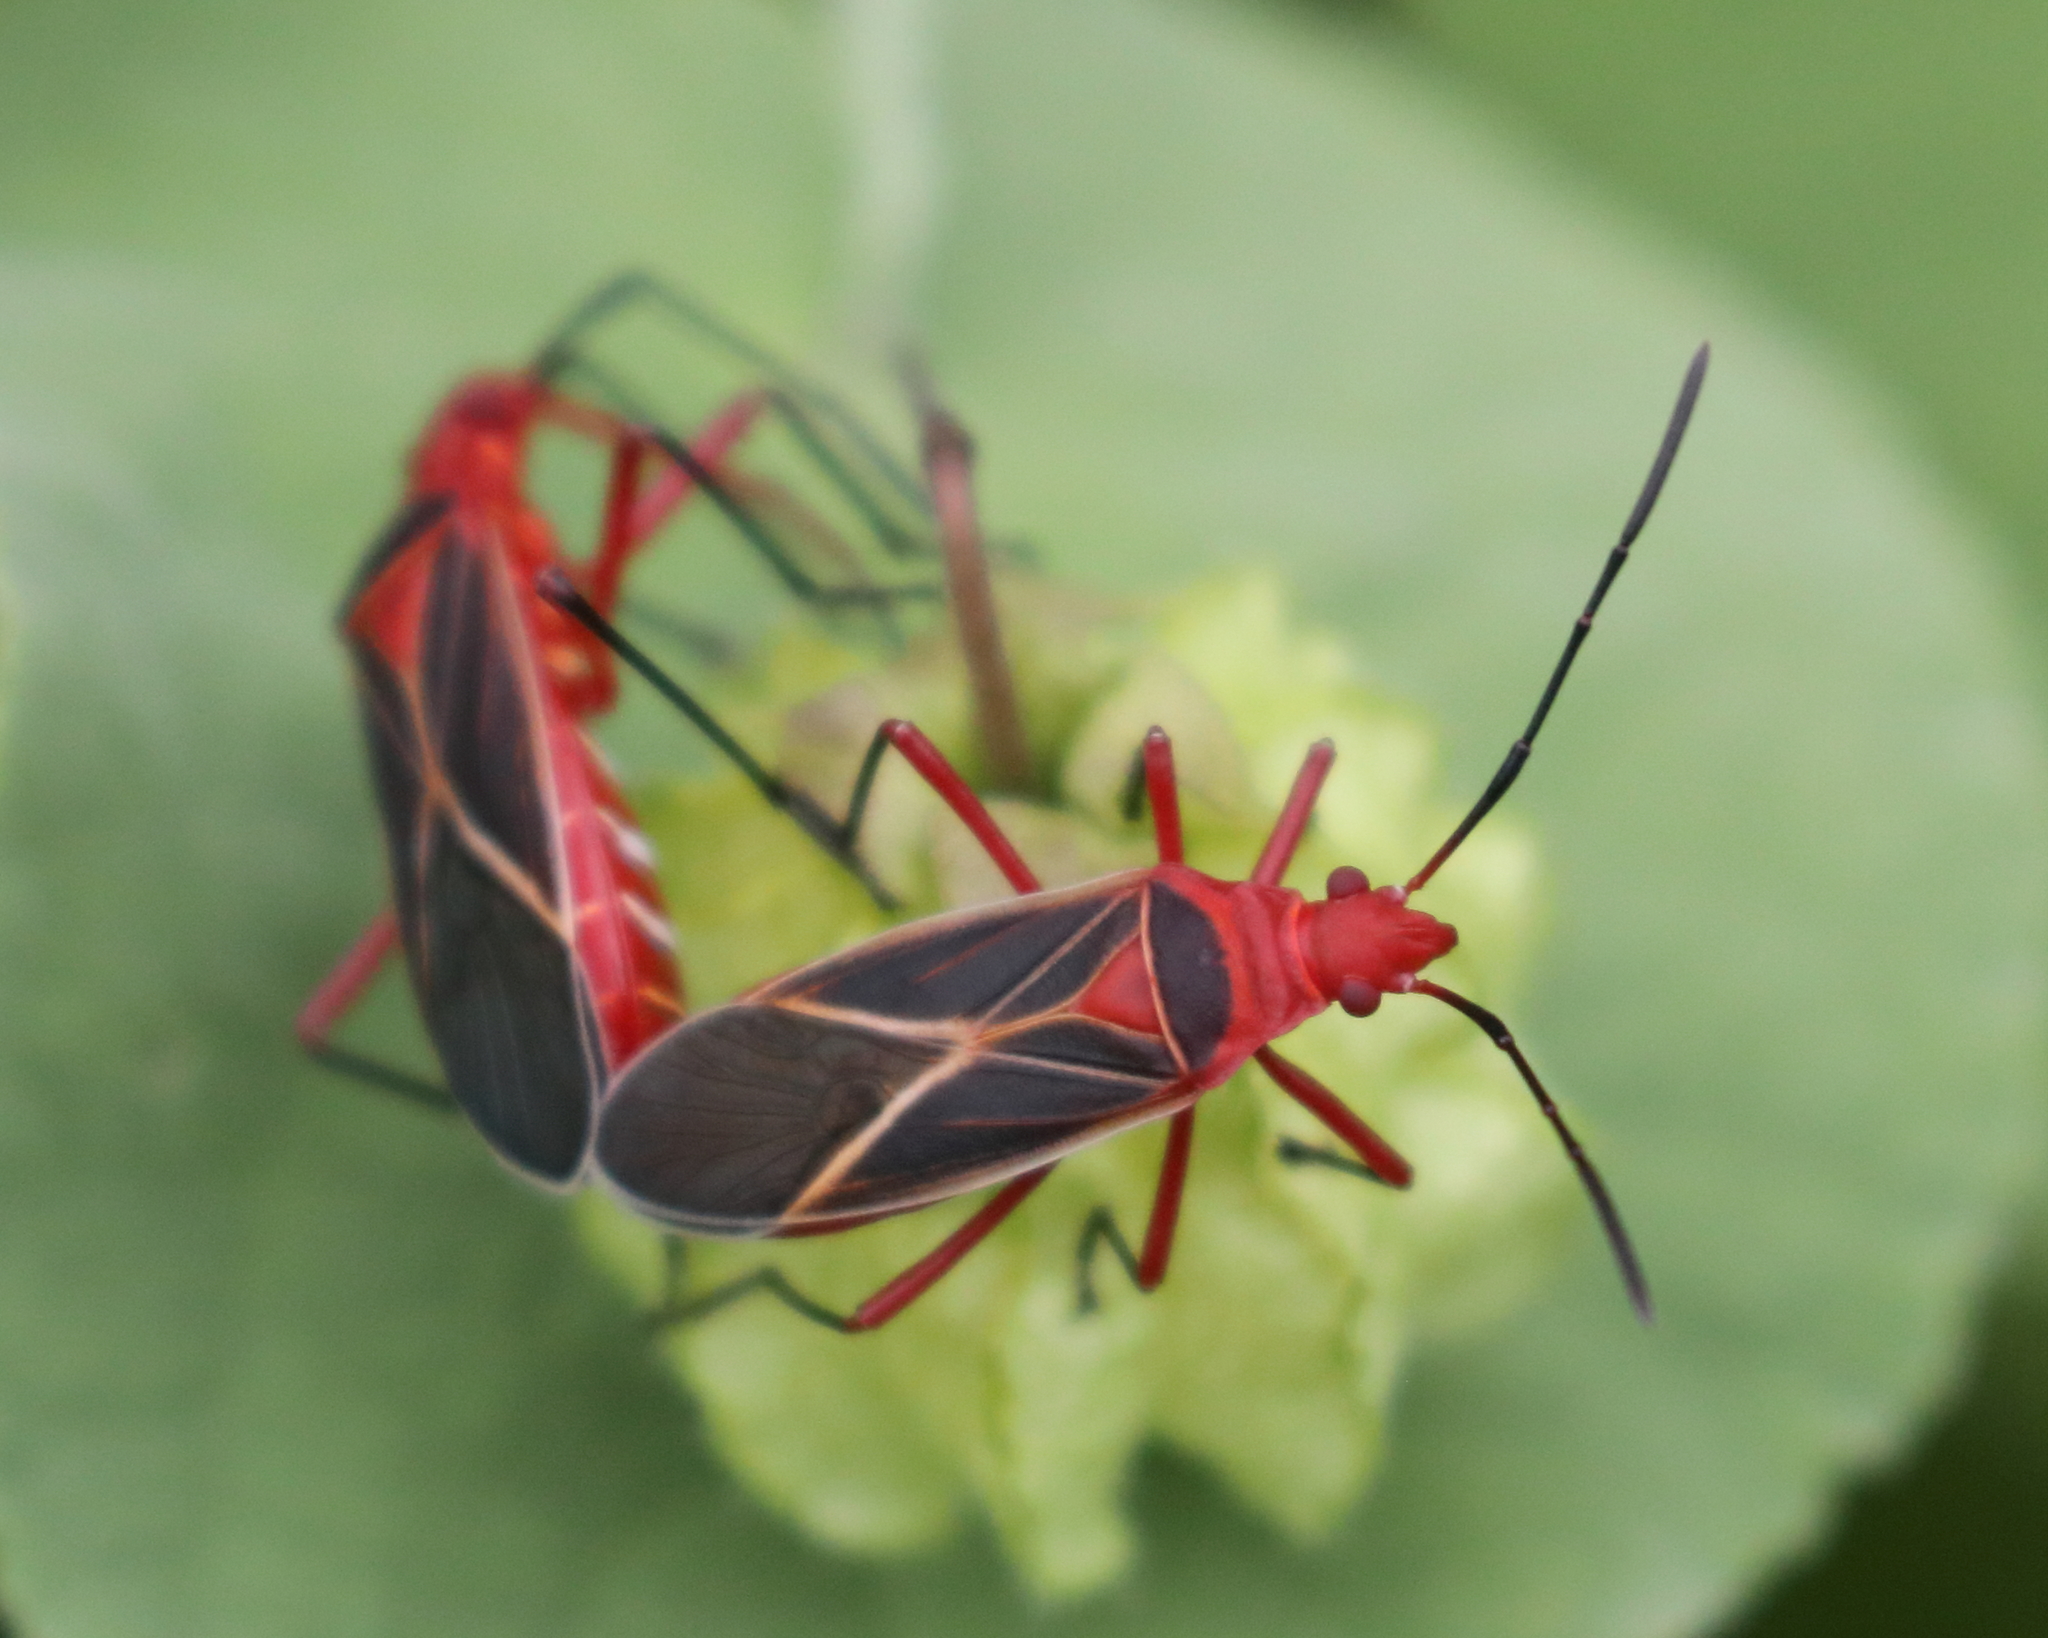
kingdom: Animalia
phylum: Arthropoda
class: Insecta
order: Hemiptera
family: Pyrrhocoridae
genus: Dysdercus
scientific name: Dysdercus suturellus
